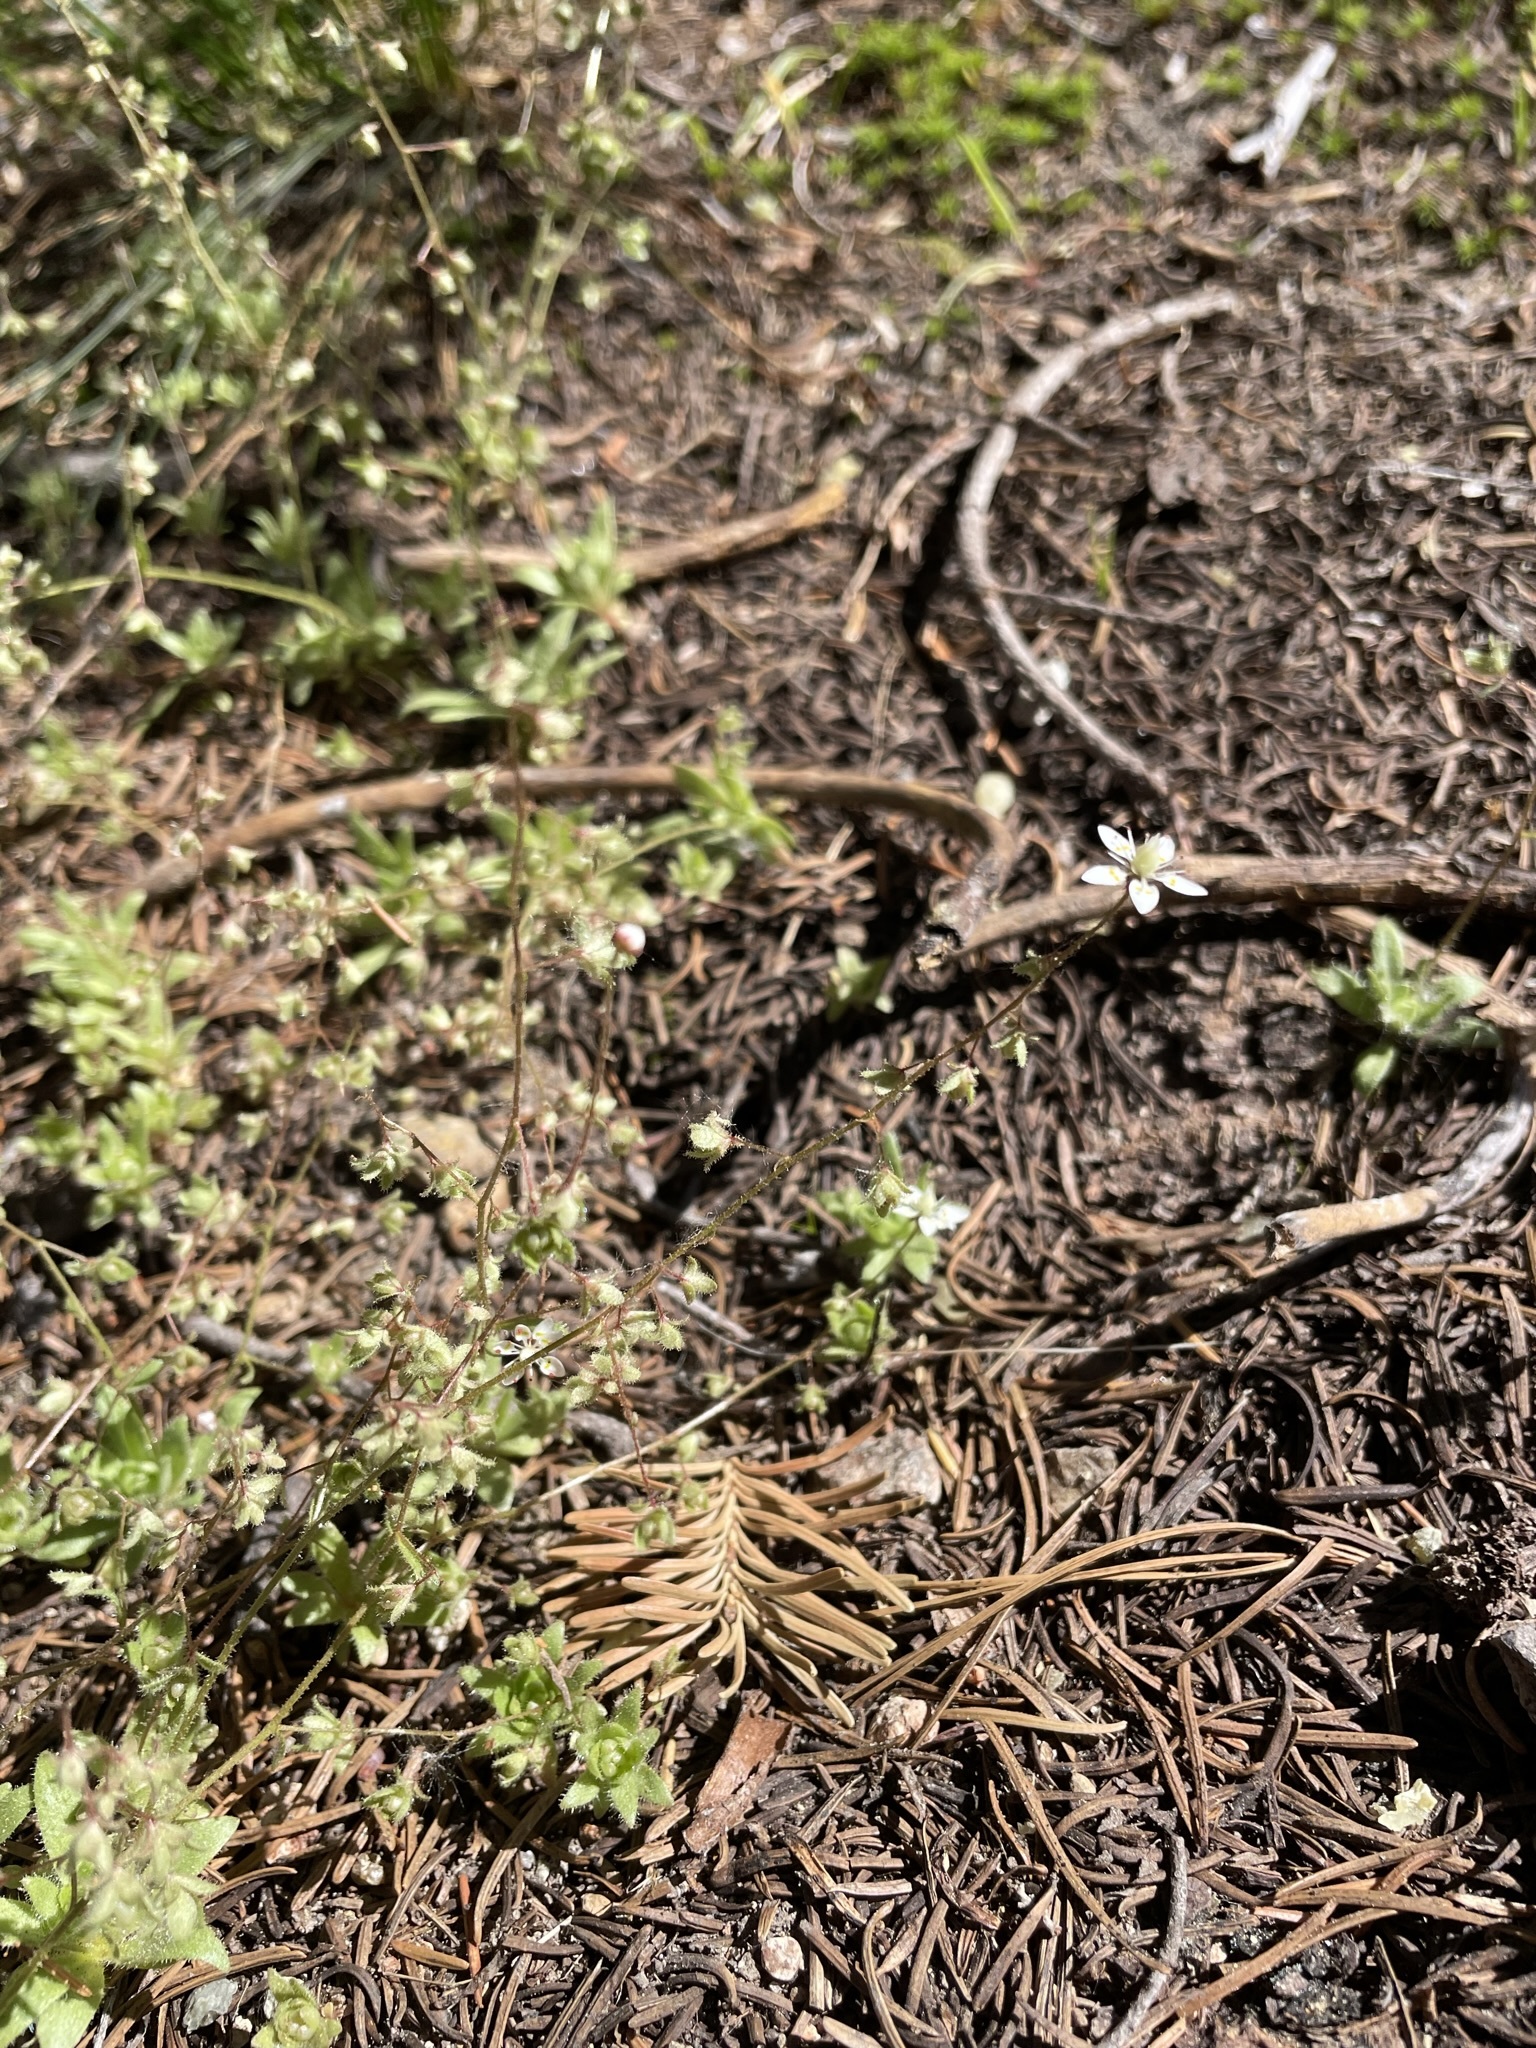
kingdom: Plantae
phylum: Tracheophyta
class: Magnoliopsida
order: Saxifragales
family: Saxifragaceae
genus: Micranthes
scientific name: Micranthes bryophora
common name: Bud saxifrage
